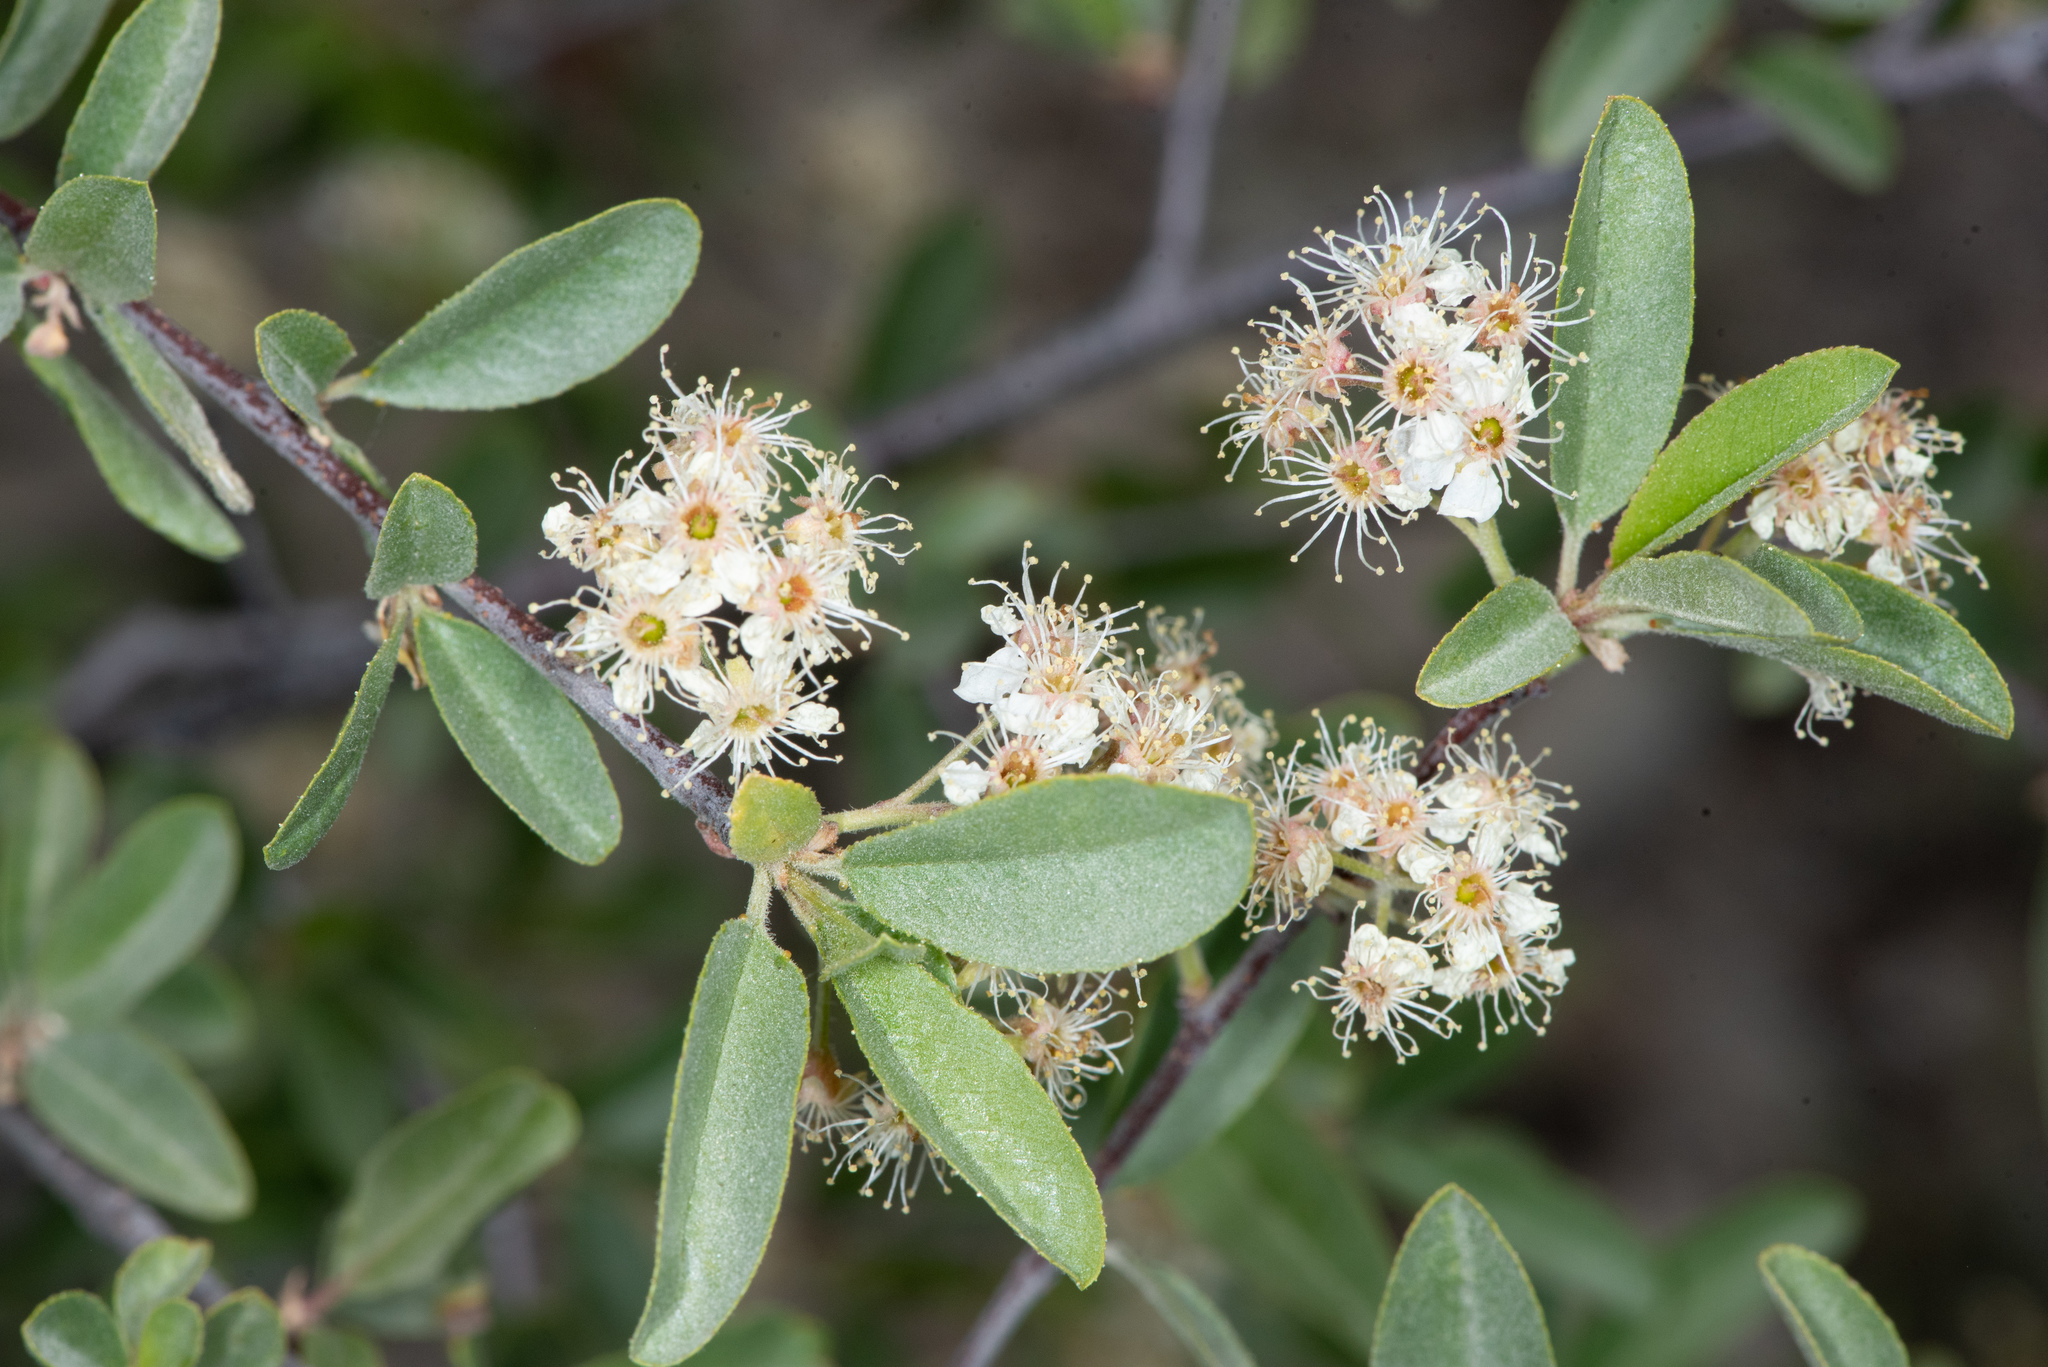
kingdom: Plantae
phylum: Tracheophyta
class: Magnoliopsida
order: Rosales
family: Rosaceae
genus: Prunus
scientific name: Prunus emarginata
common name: Bitter cherry
